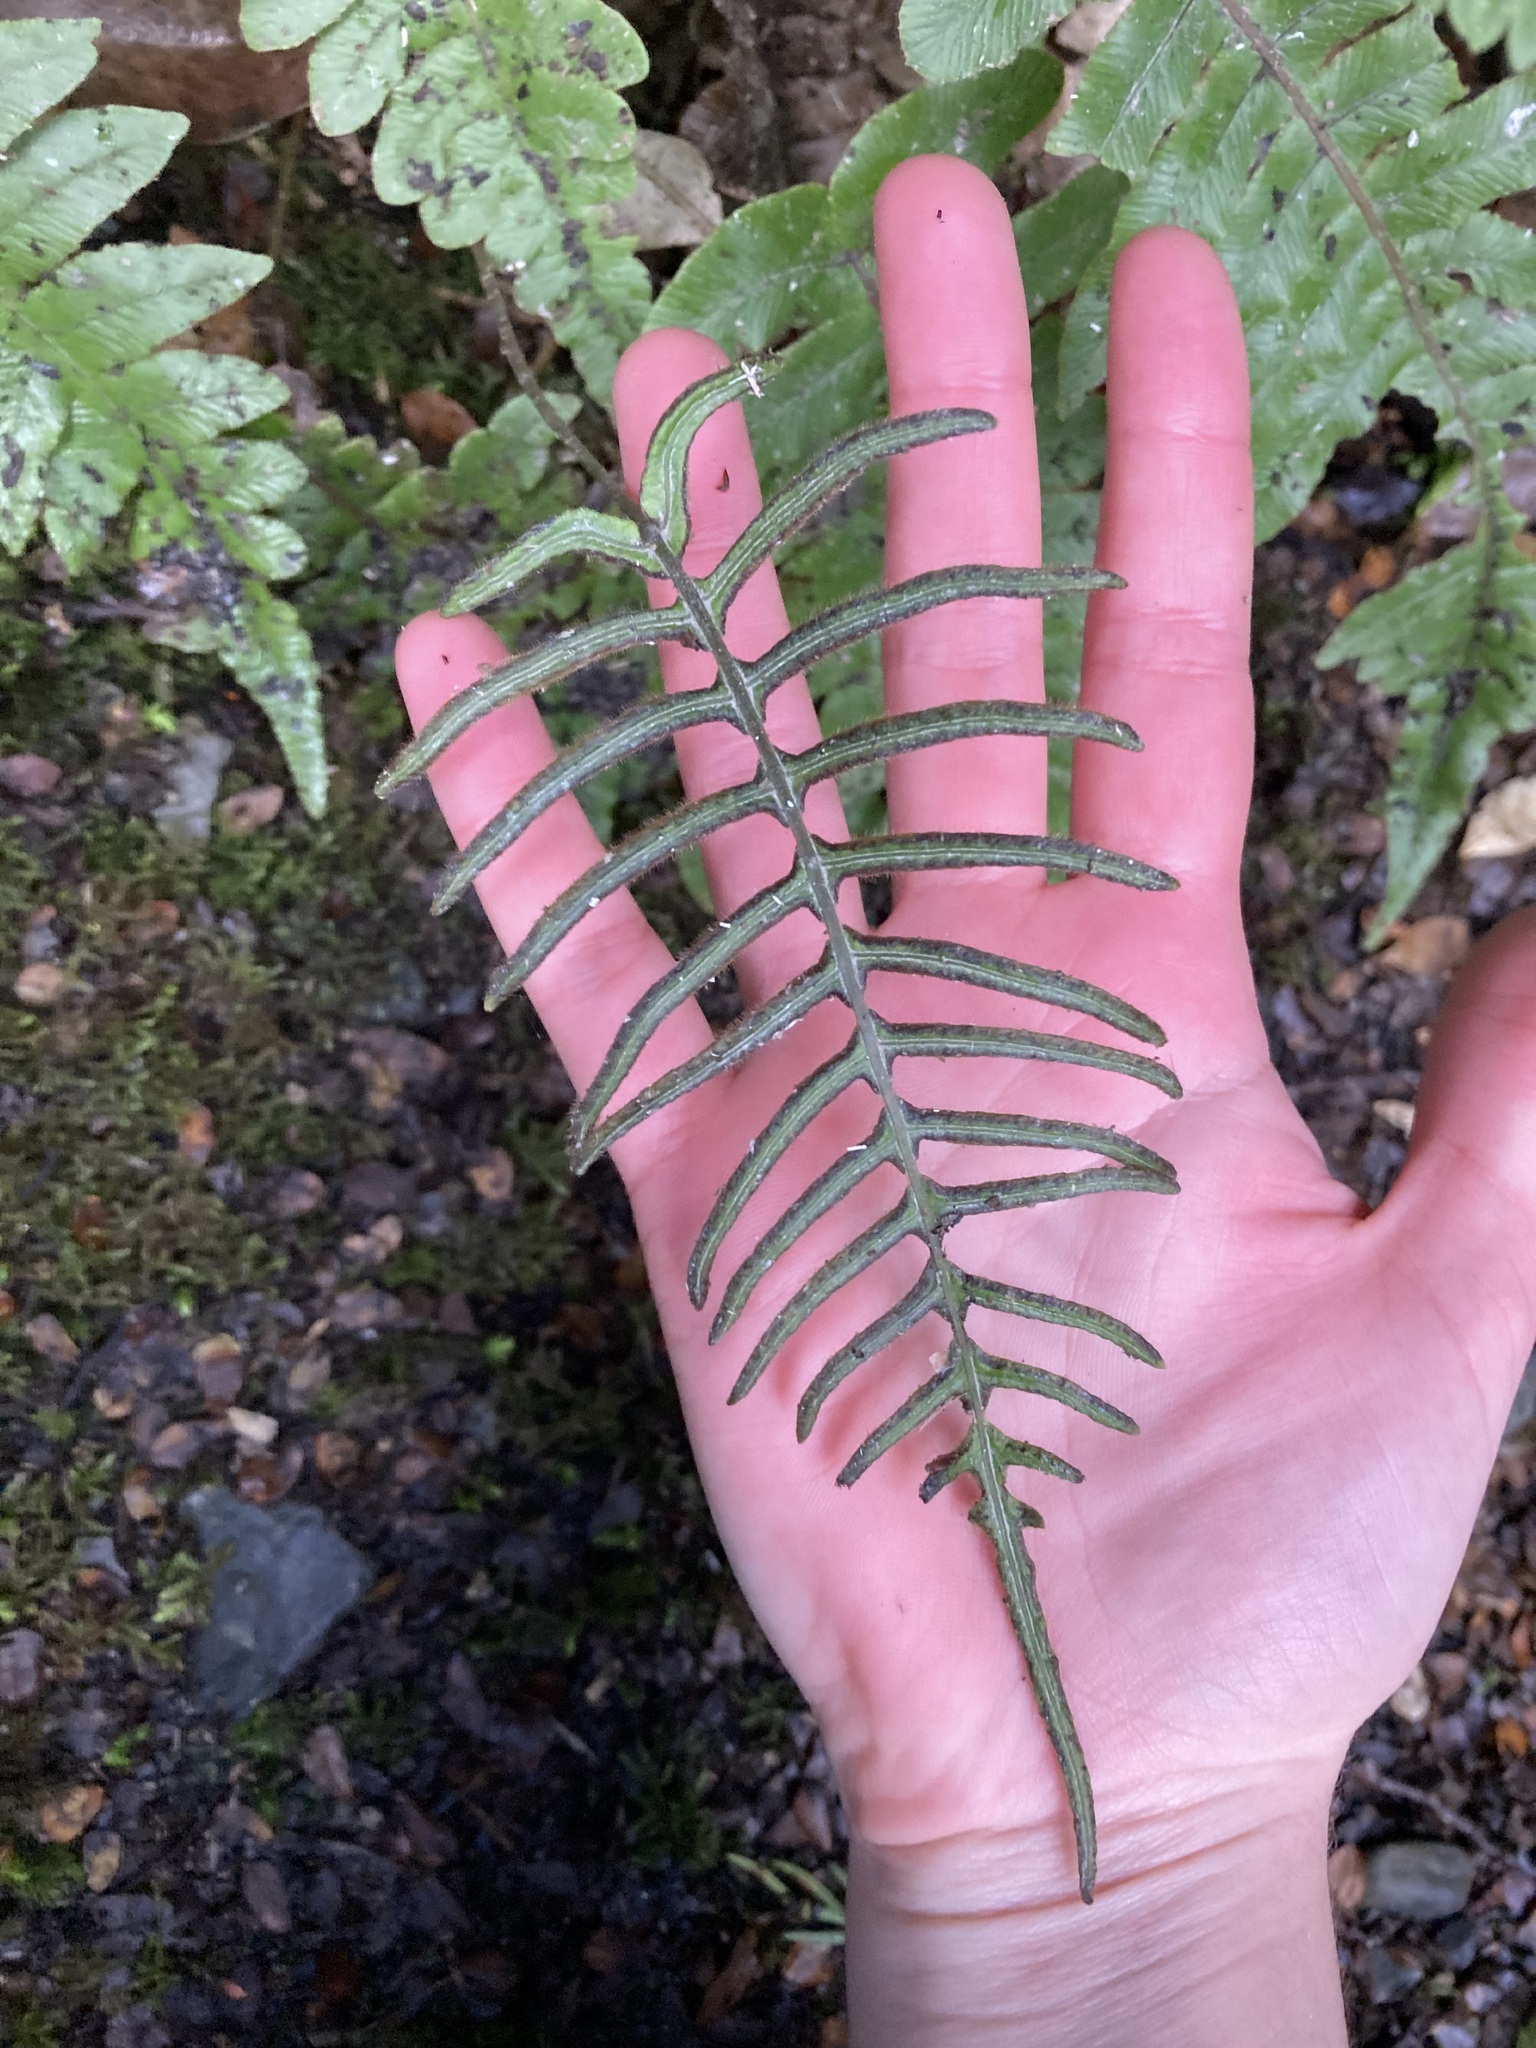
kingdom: Plantae
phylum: Tracheophyta
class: Polypodiopsida
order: Polypodiales
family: Blechnaceae
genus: Cranfillia
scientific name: Cranfillia deltoides
